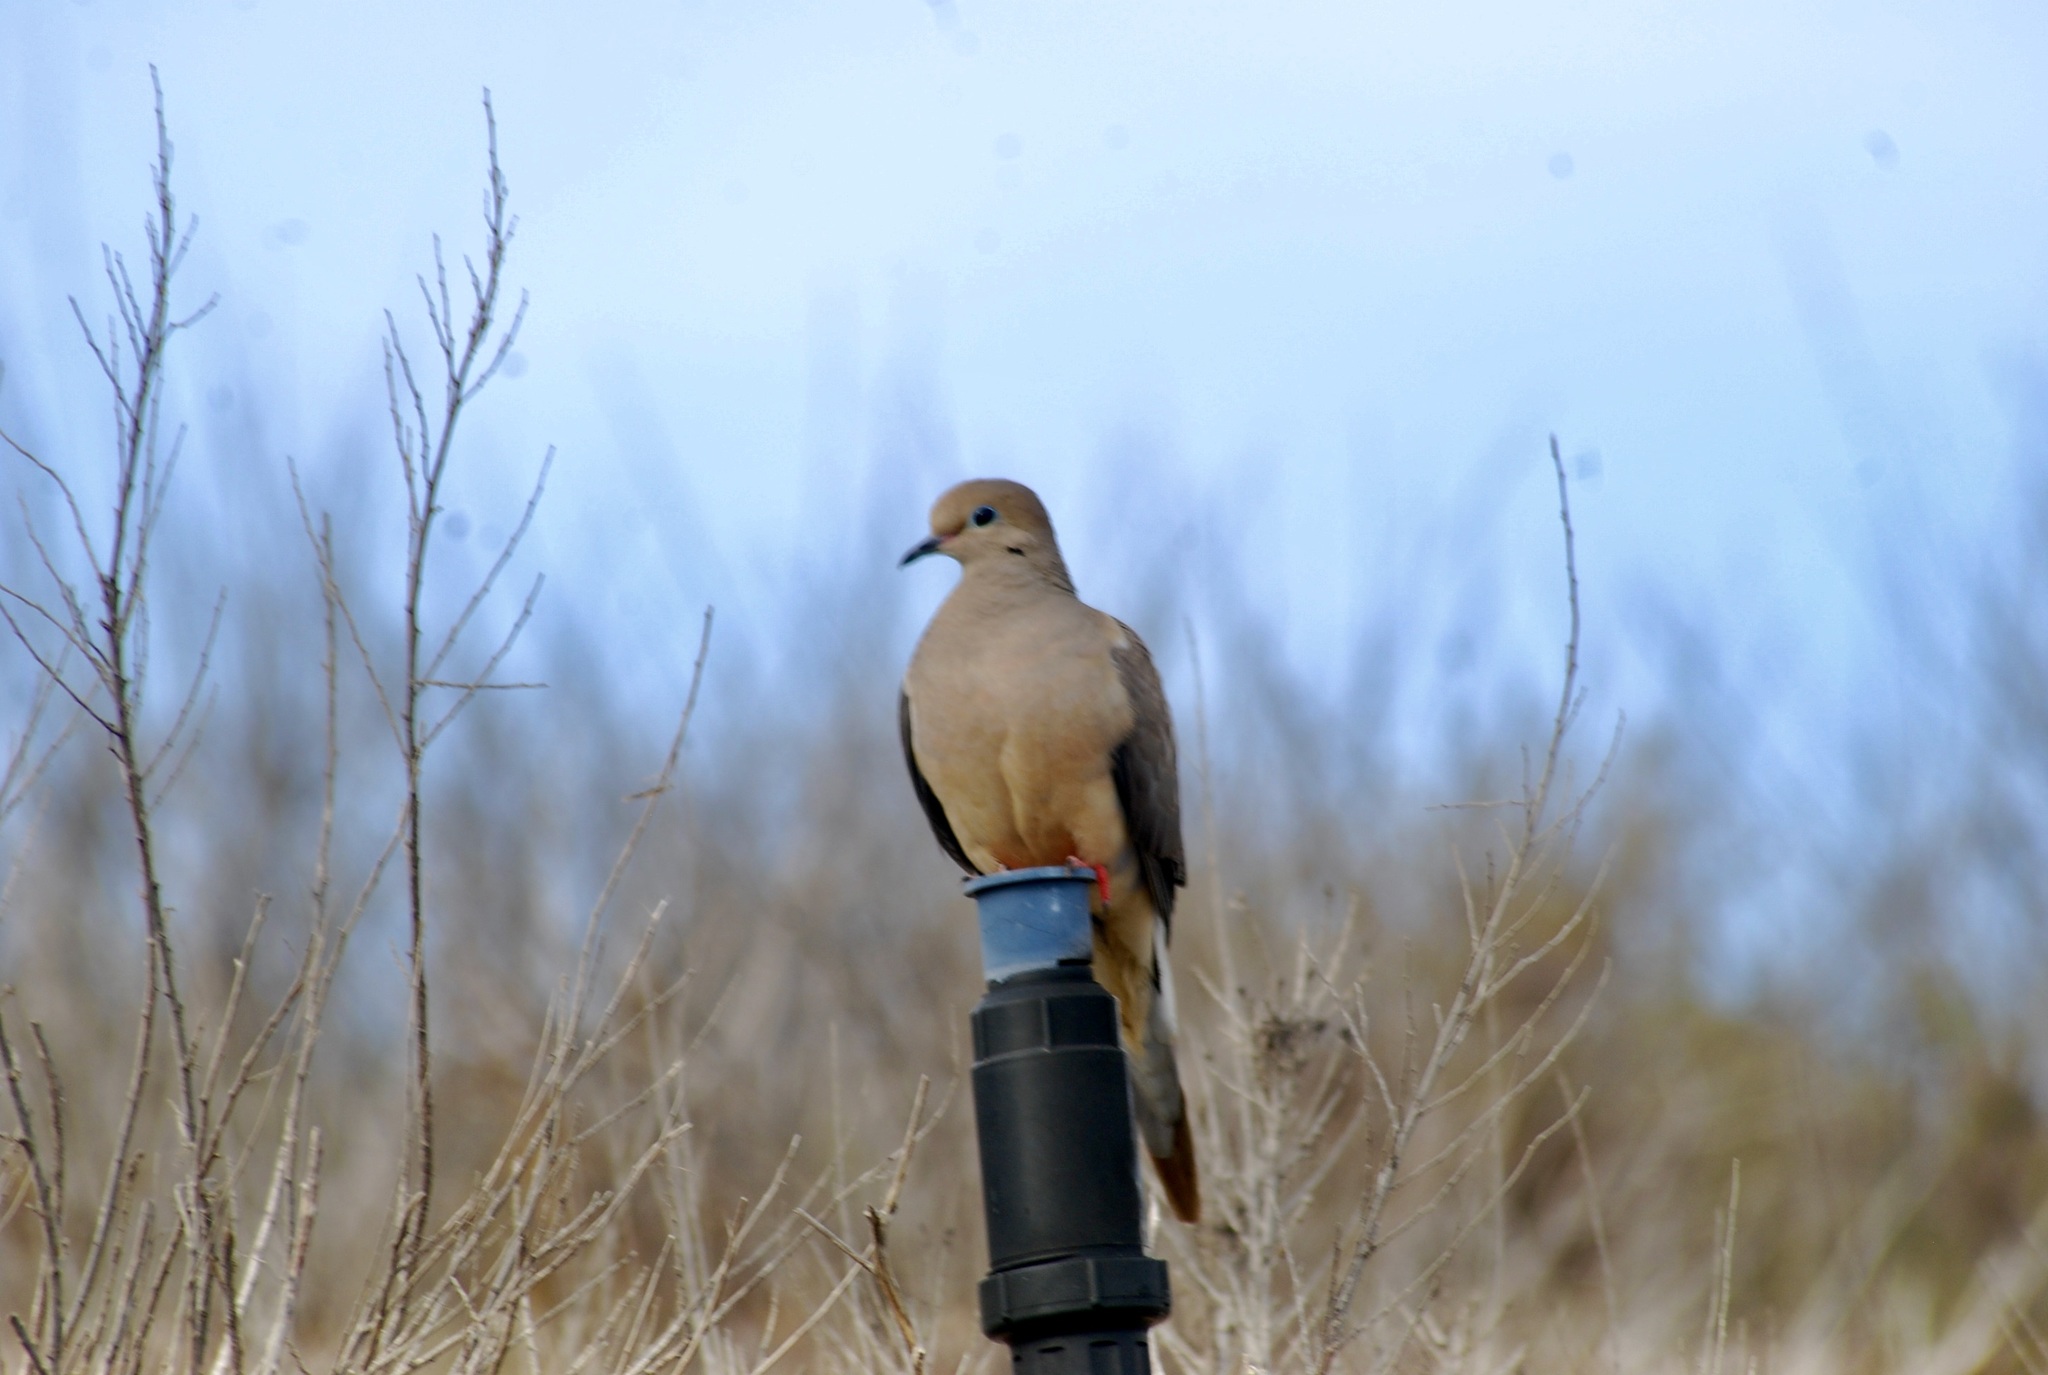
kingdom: Animalia
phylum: Chordata
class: Aves
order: Columbiformes
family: Columbidae
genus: Zenaida
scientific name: Zenaida macroura
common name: Mourning dove
